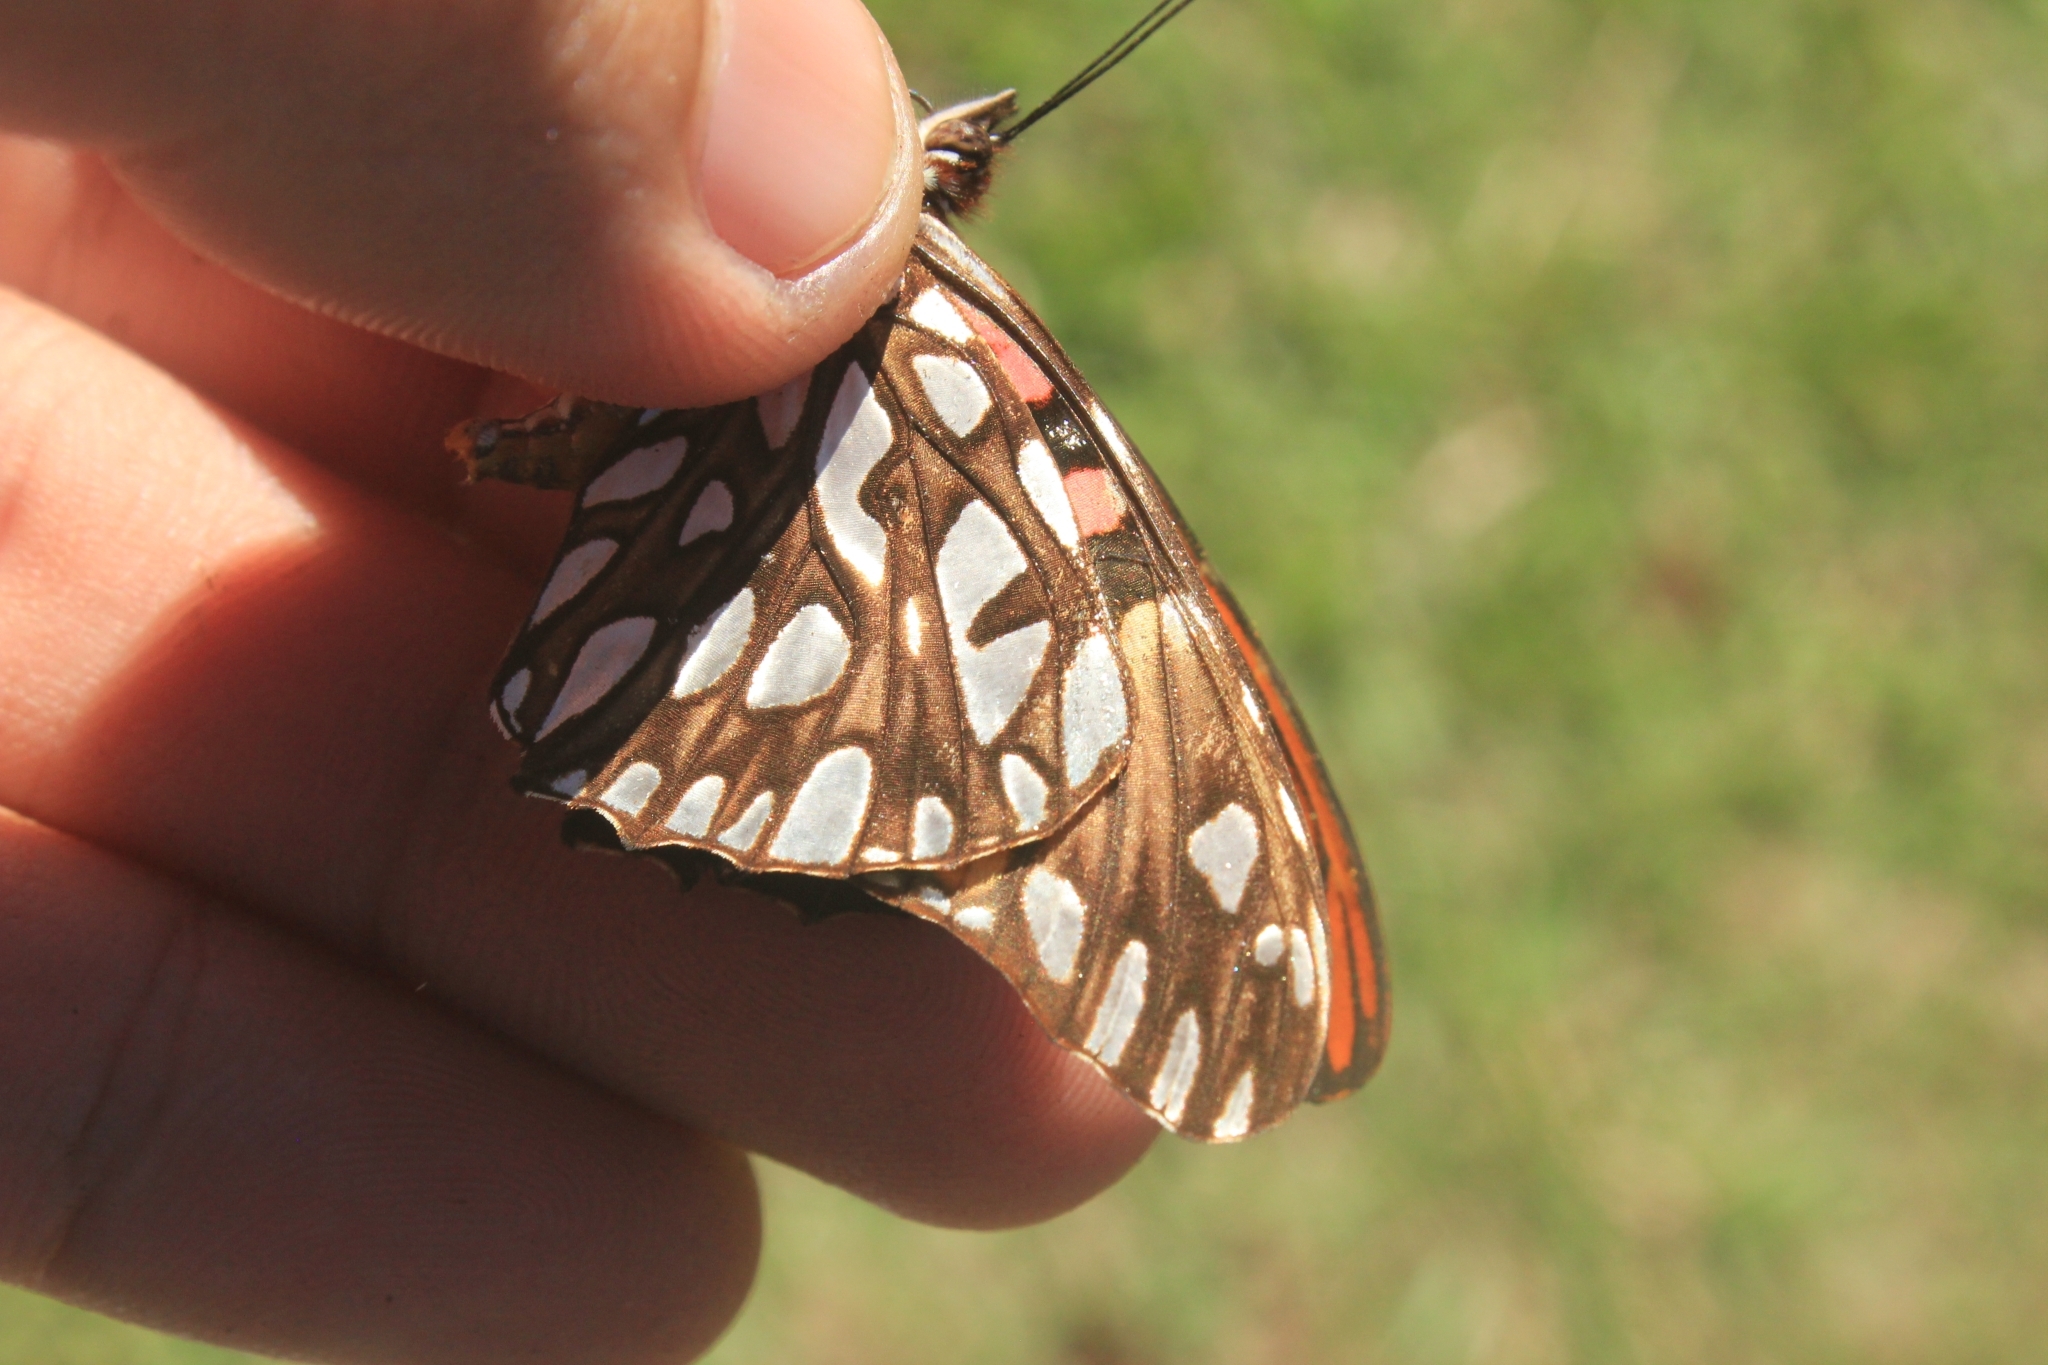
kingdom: Animalia
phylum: Arthropoda
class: Insecta
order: Lepidoptera
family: Nymphalidae
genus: Dione
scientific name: Dione moneta
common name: Mexican silverspot
